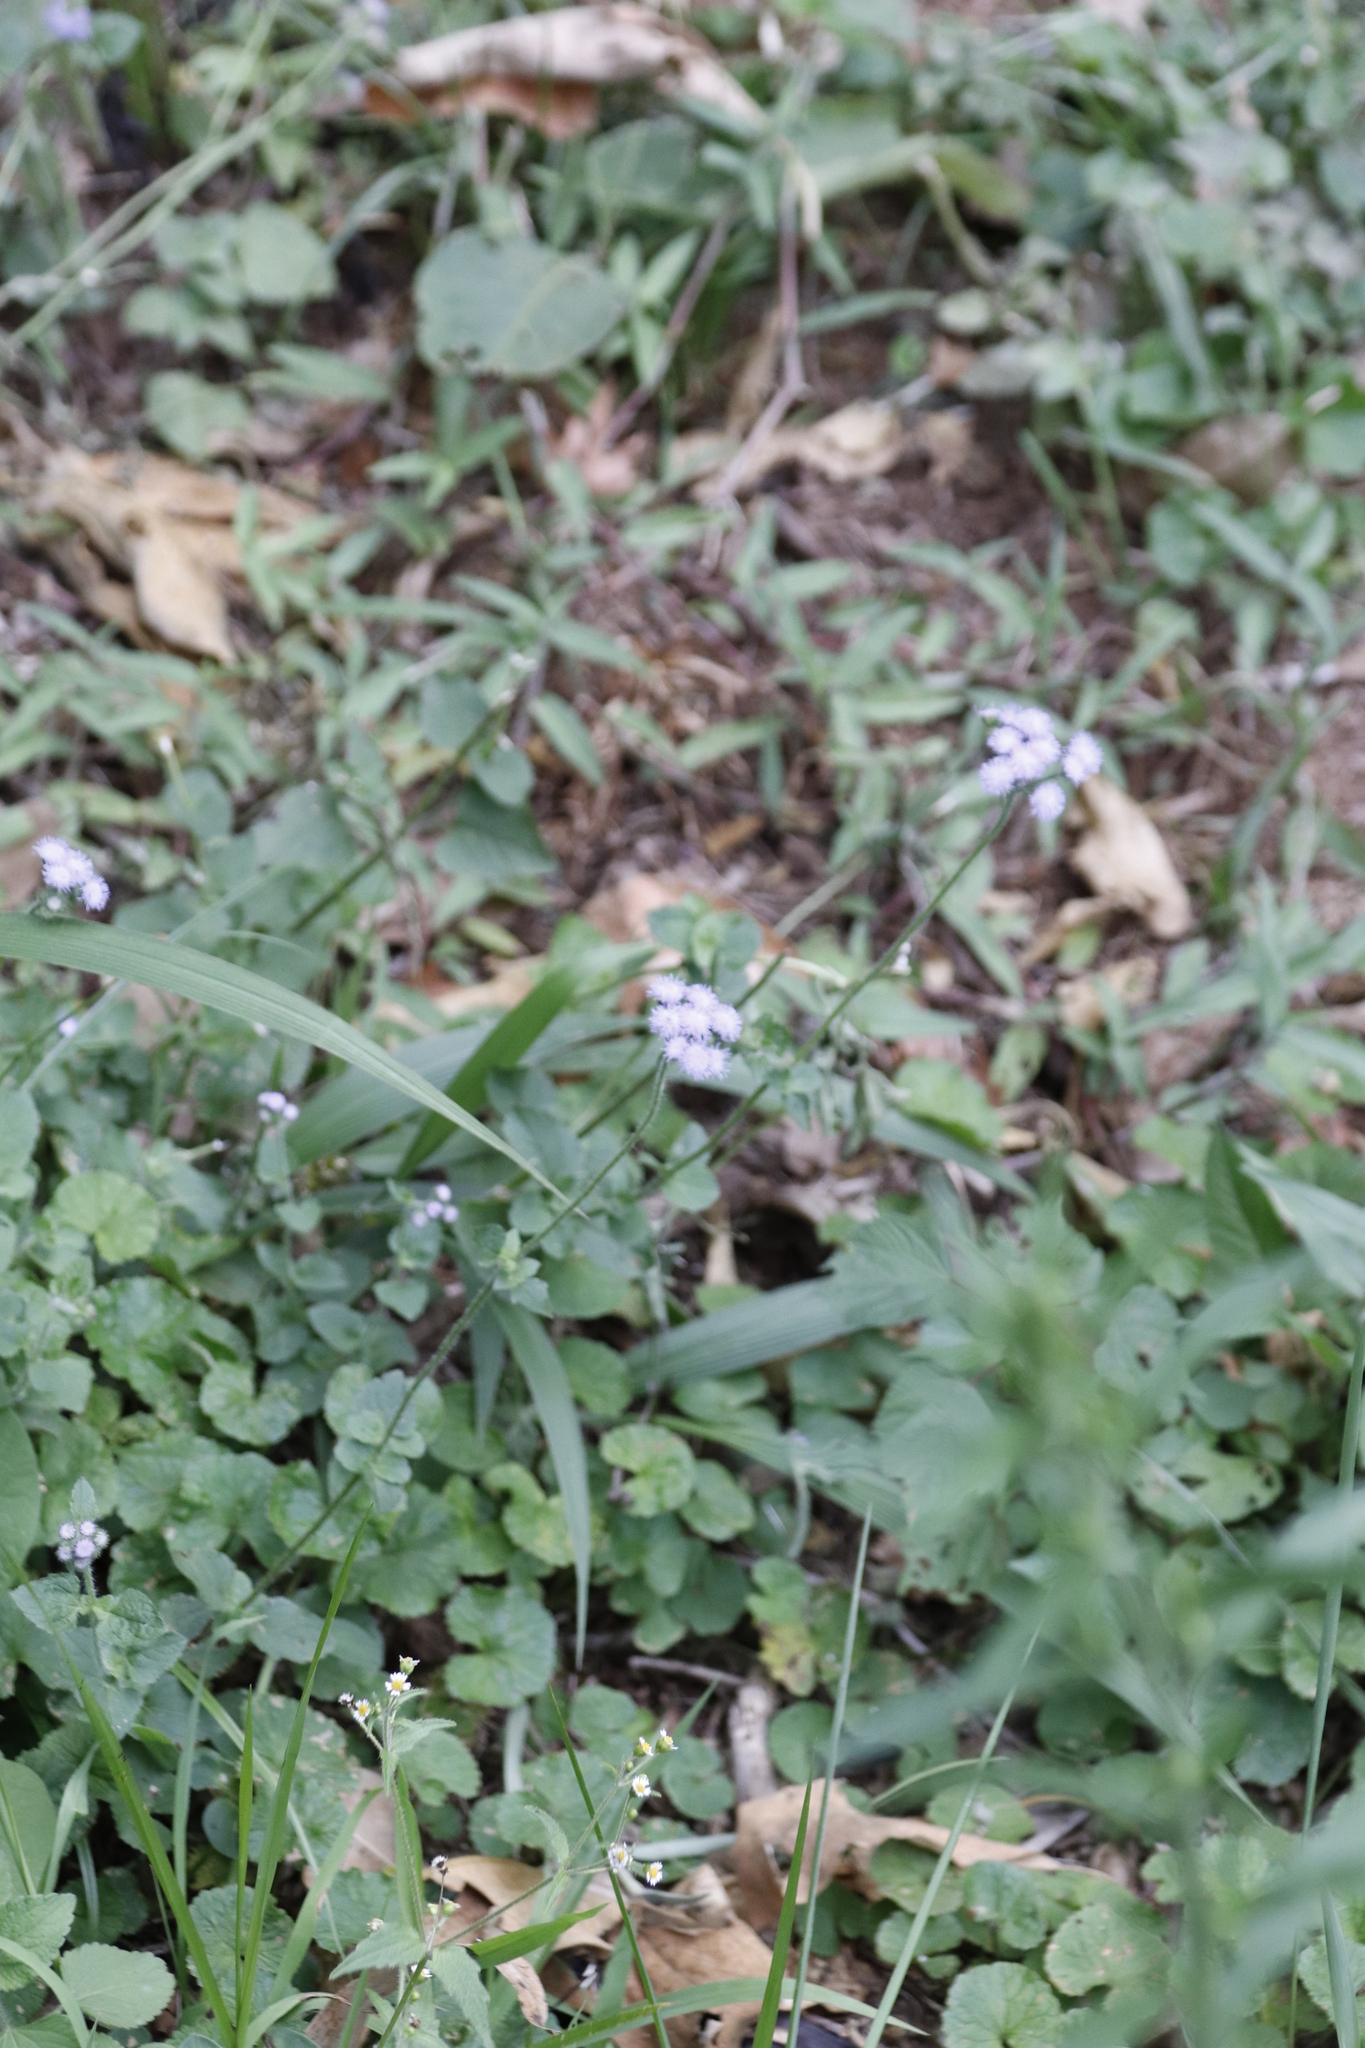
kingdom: Plantae
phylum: Tracheophyta
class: Magnoliopsida
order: Asterales
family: Asteraceae
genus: Ageratum
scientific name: Ageratum houstonianum
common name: Bluemink
